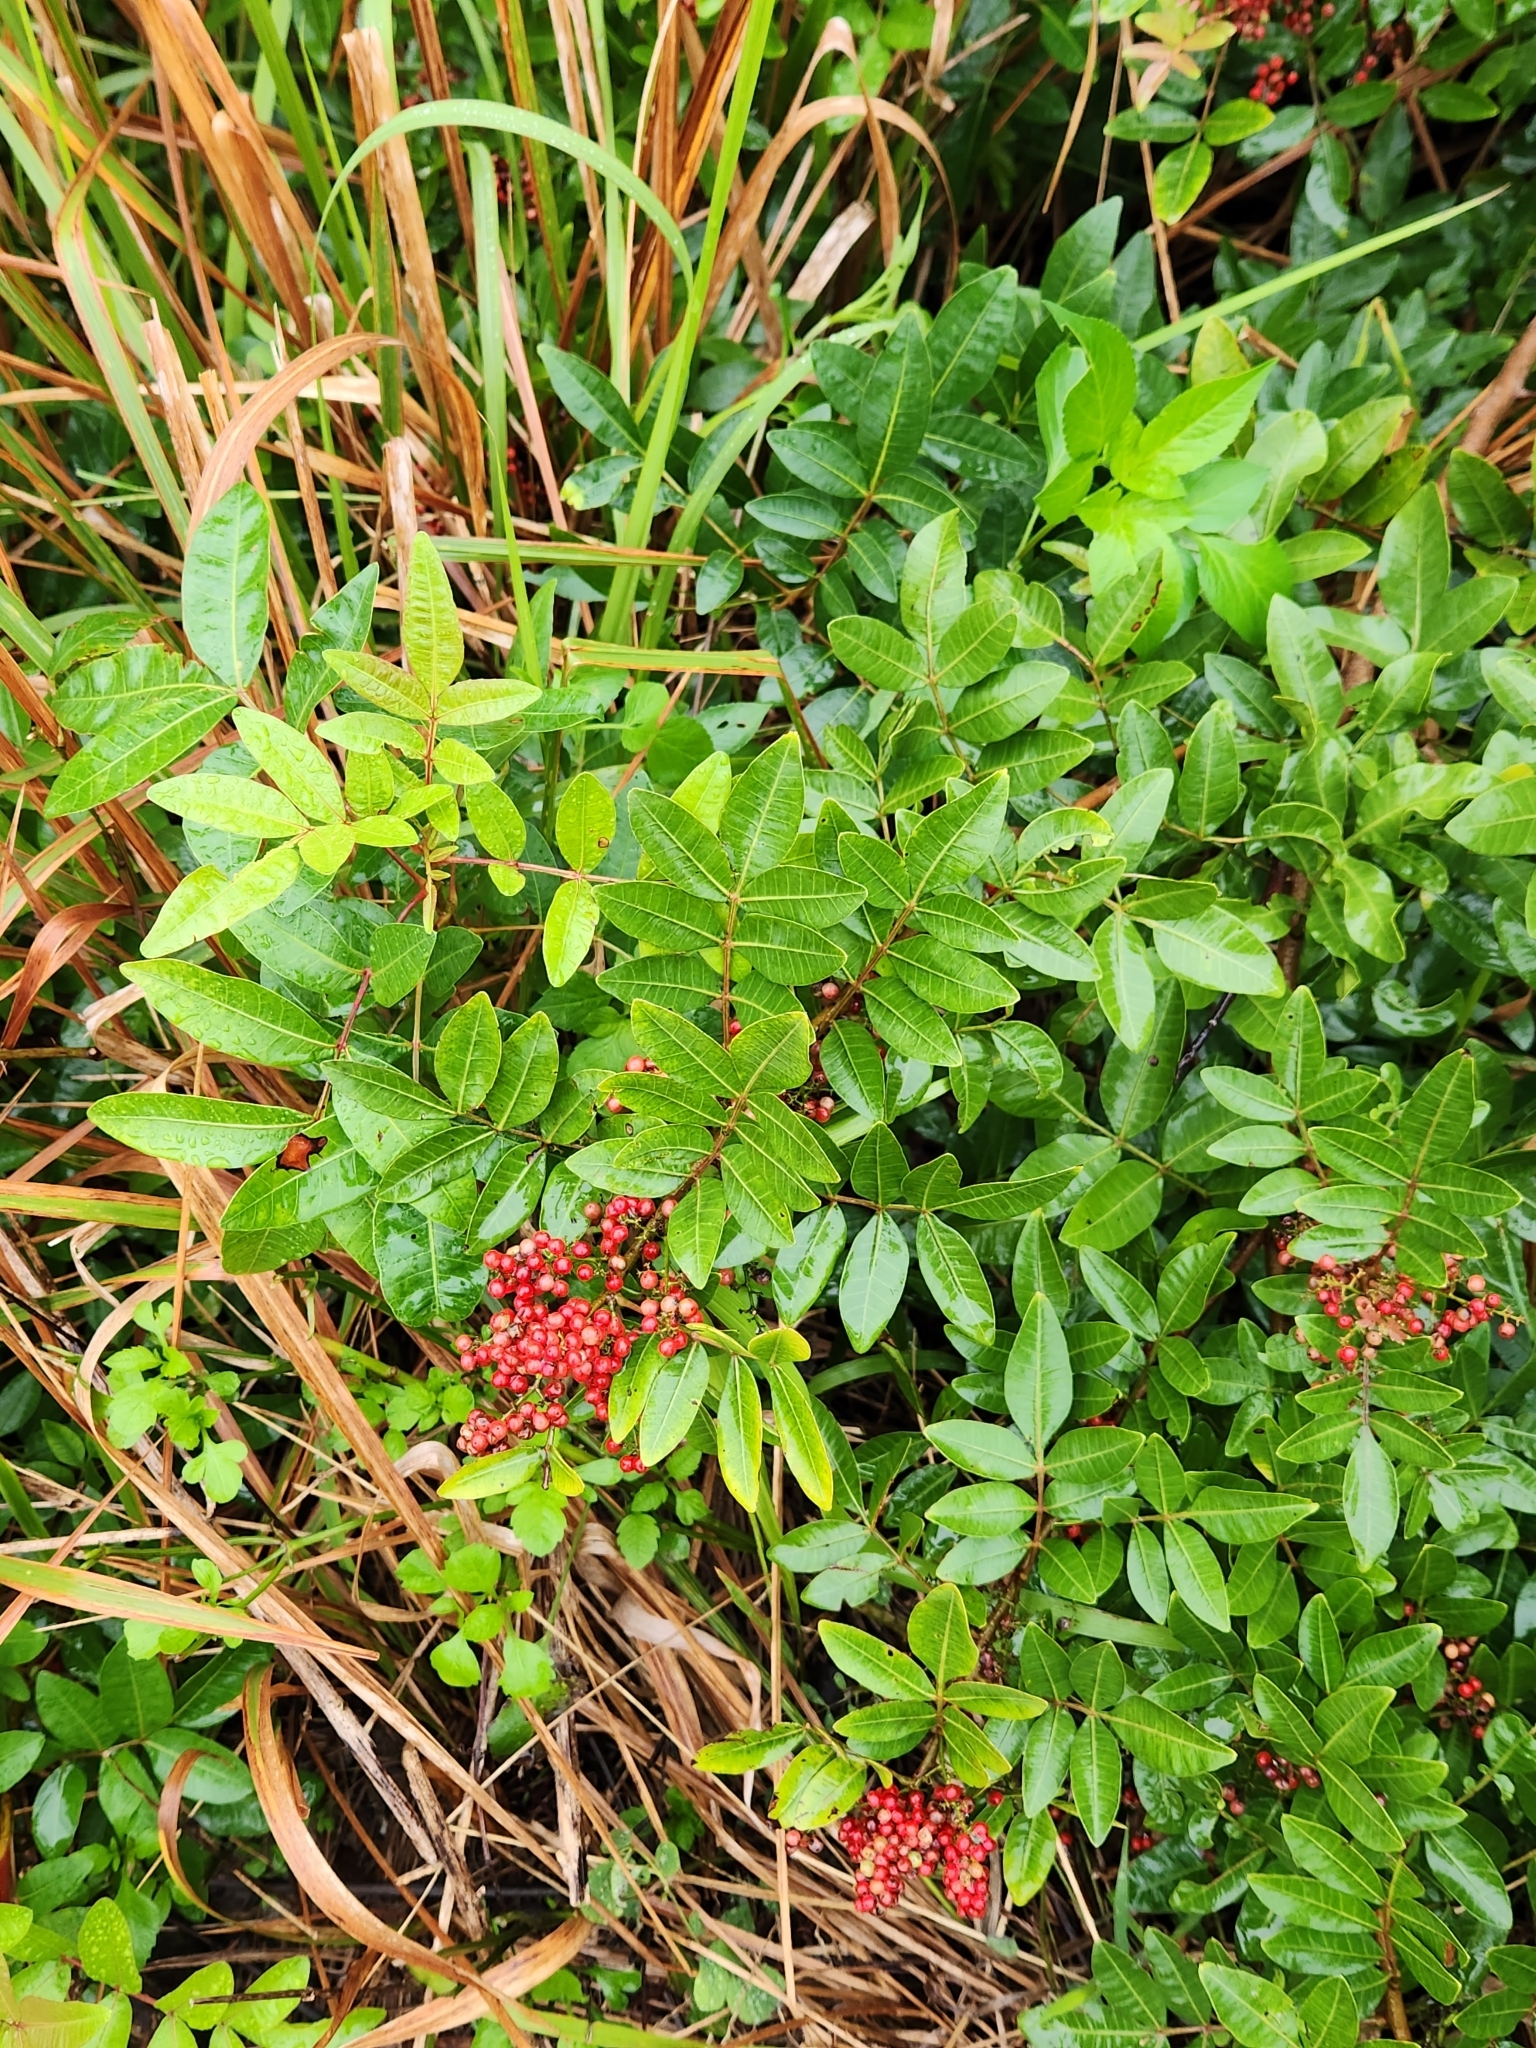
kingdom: Plantae
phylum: Tracheophyta
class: Magnoliopsida
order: Sapindales
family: Anacardiaceae
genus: Schinus
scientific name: Schinus terebinthifolia
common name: Brazilian peppertree
